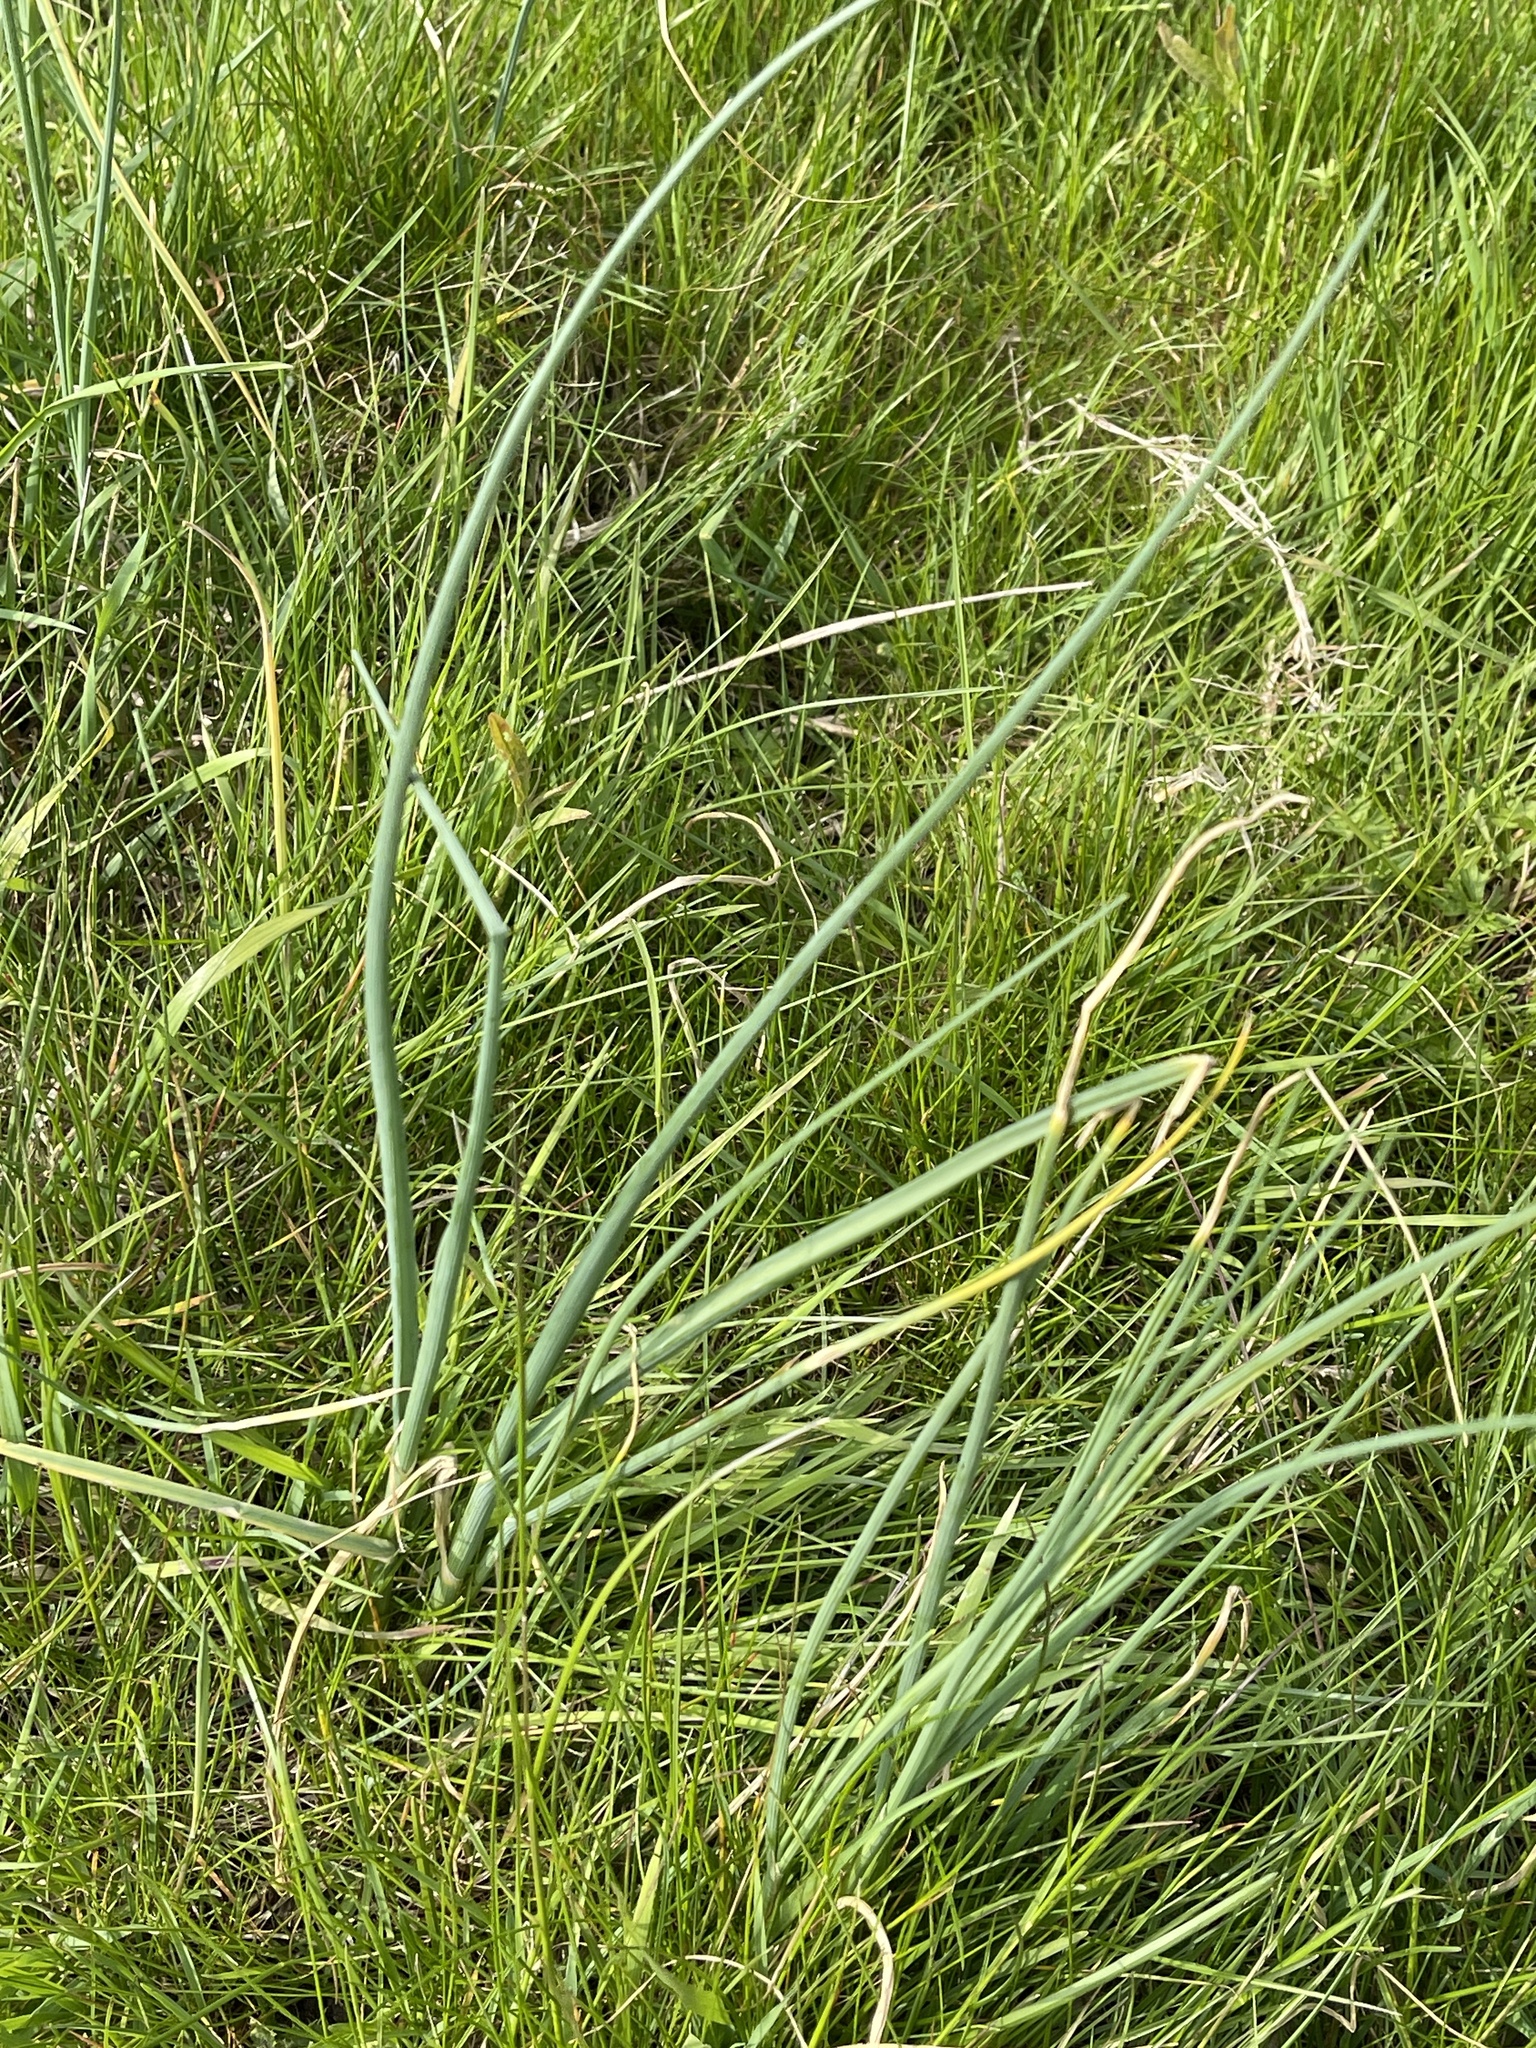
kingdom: Plantae
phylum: Tracheophyta
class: Liliopsida
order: Asparagales
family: Amaryllidaceae
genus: Allium
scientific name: Allium vineale
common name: Crow garlic
